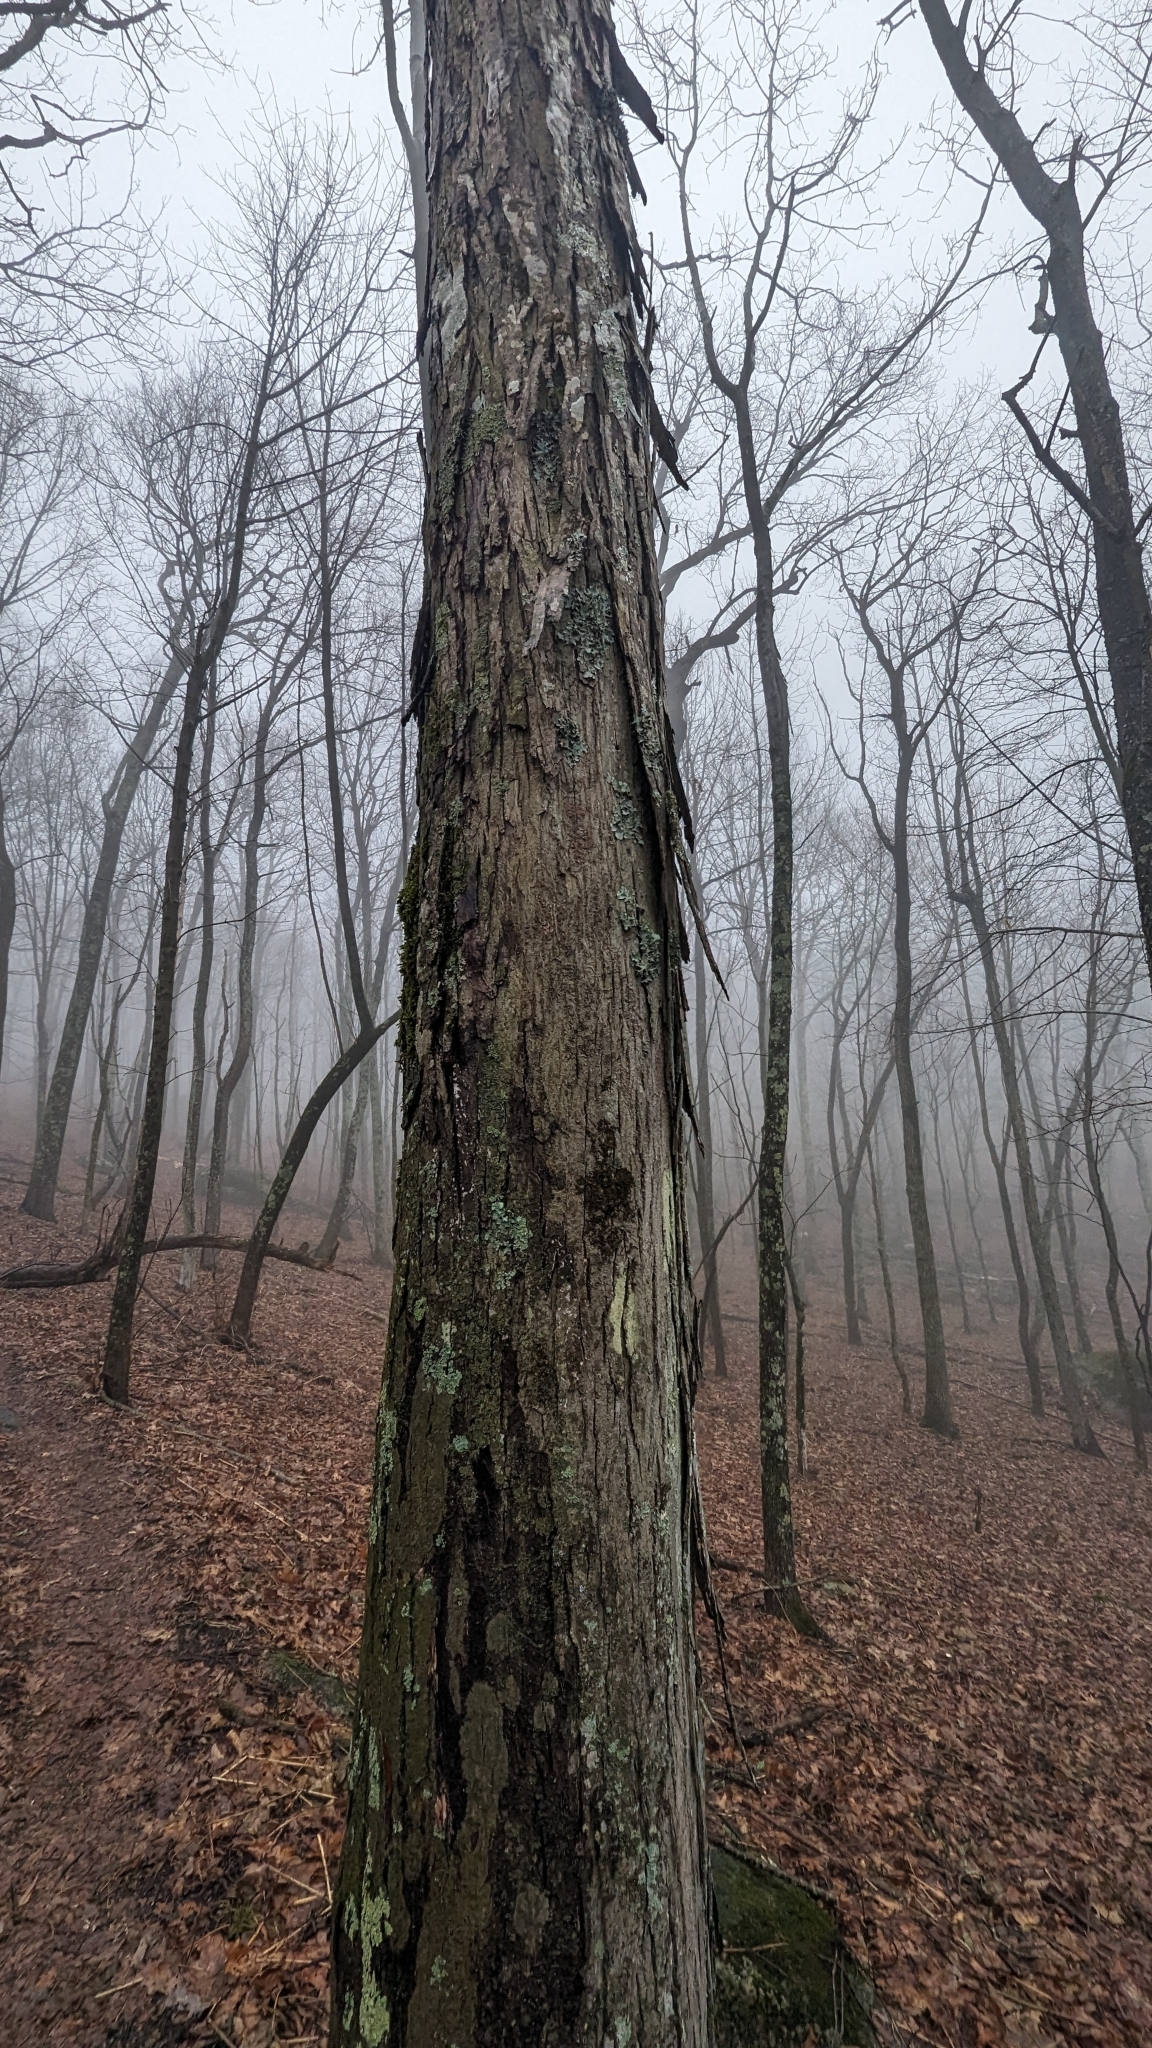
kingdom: Plantae
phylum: Tracheophyta
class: Magnoliopsida
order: Fagales
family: Juglandaceae
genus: Carya
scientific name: Carya ovata
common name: Shagbark hickory
